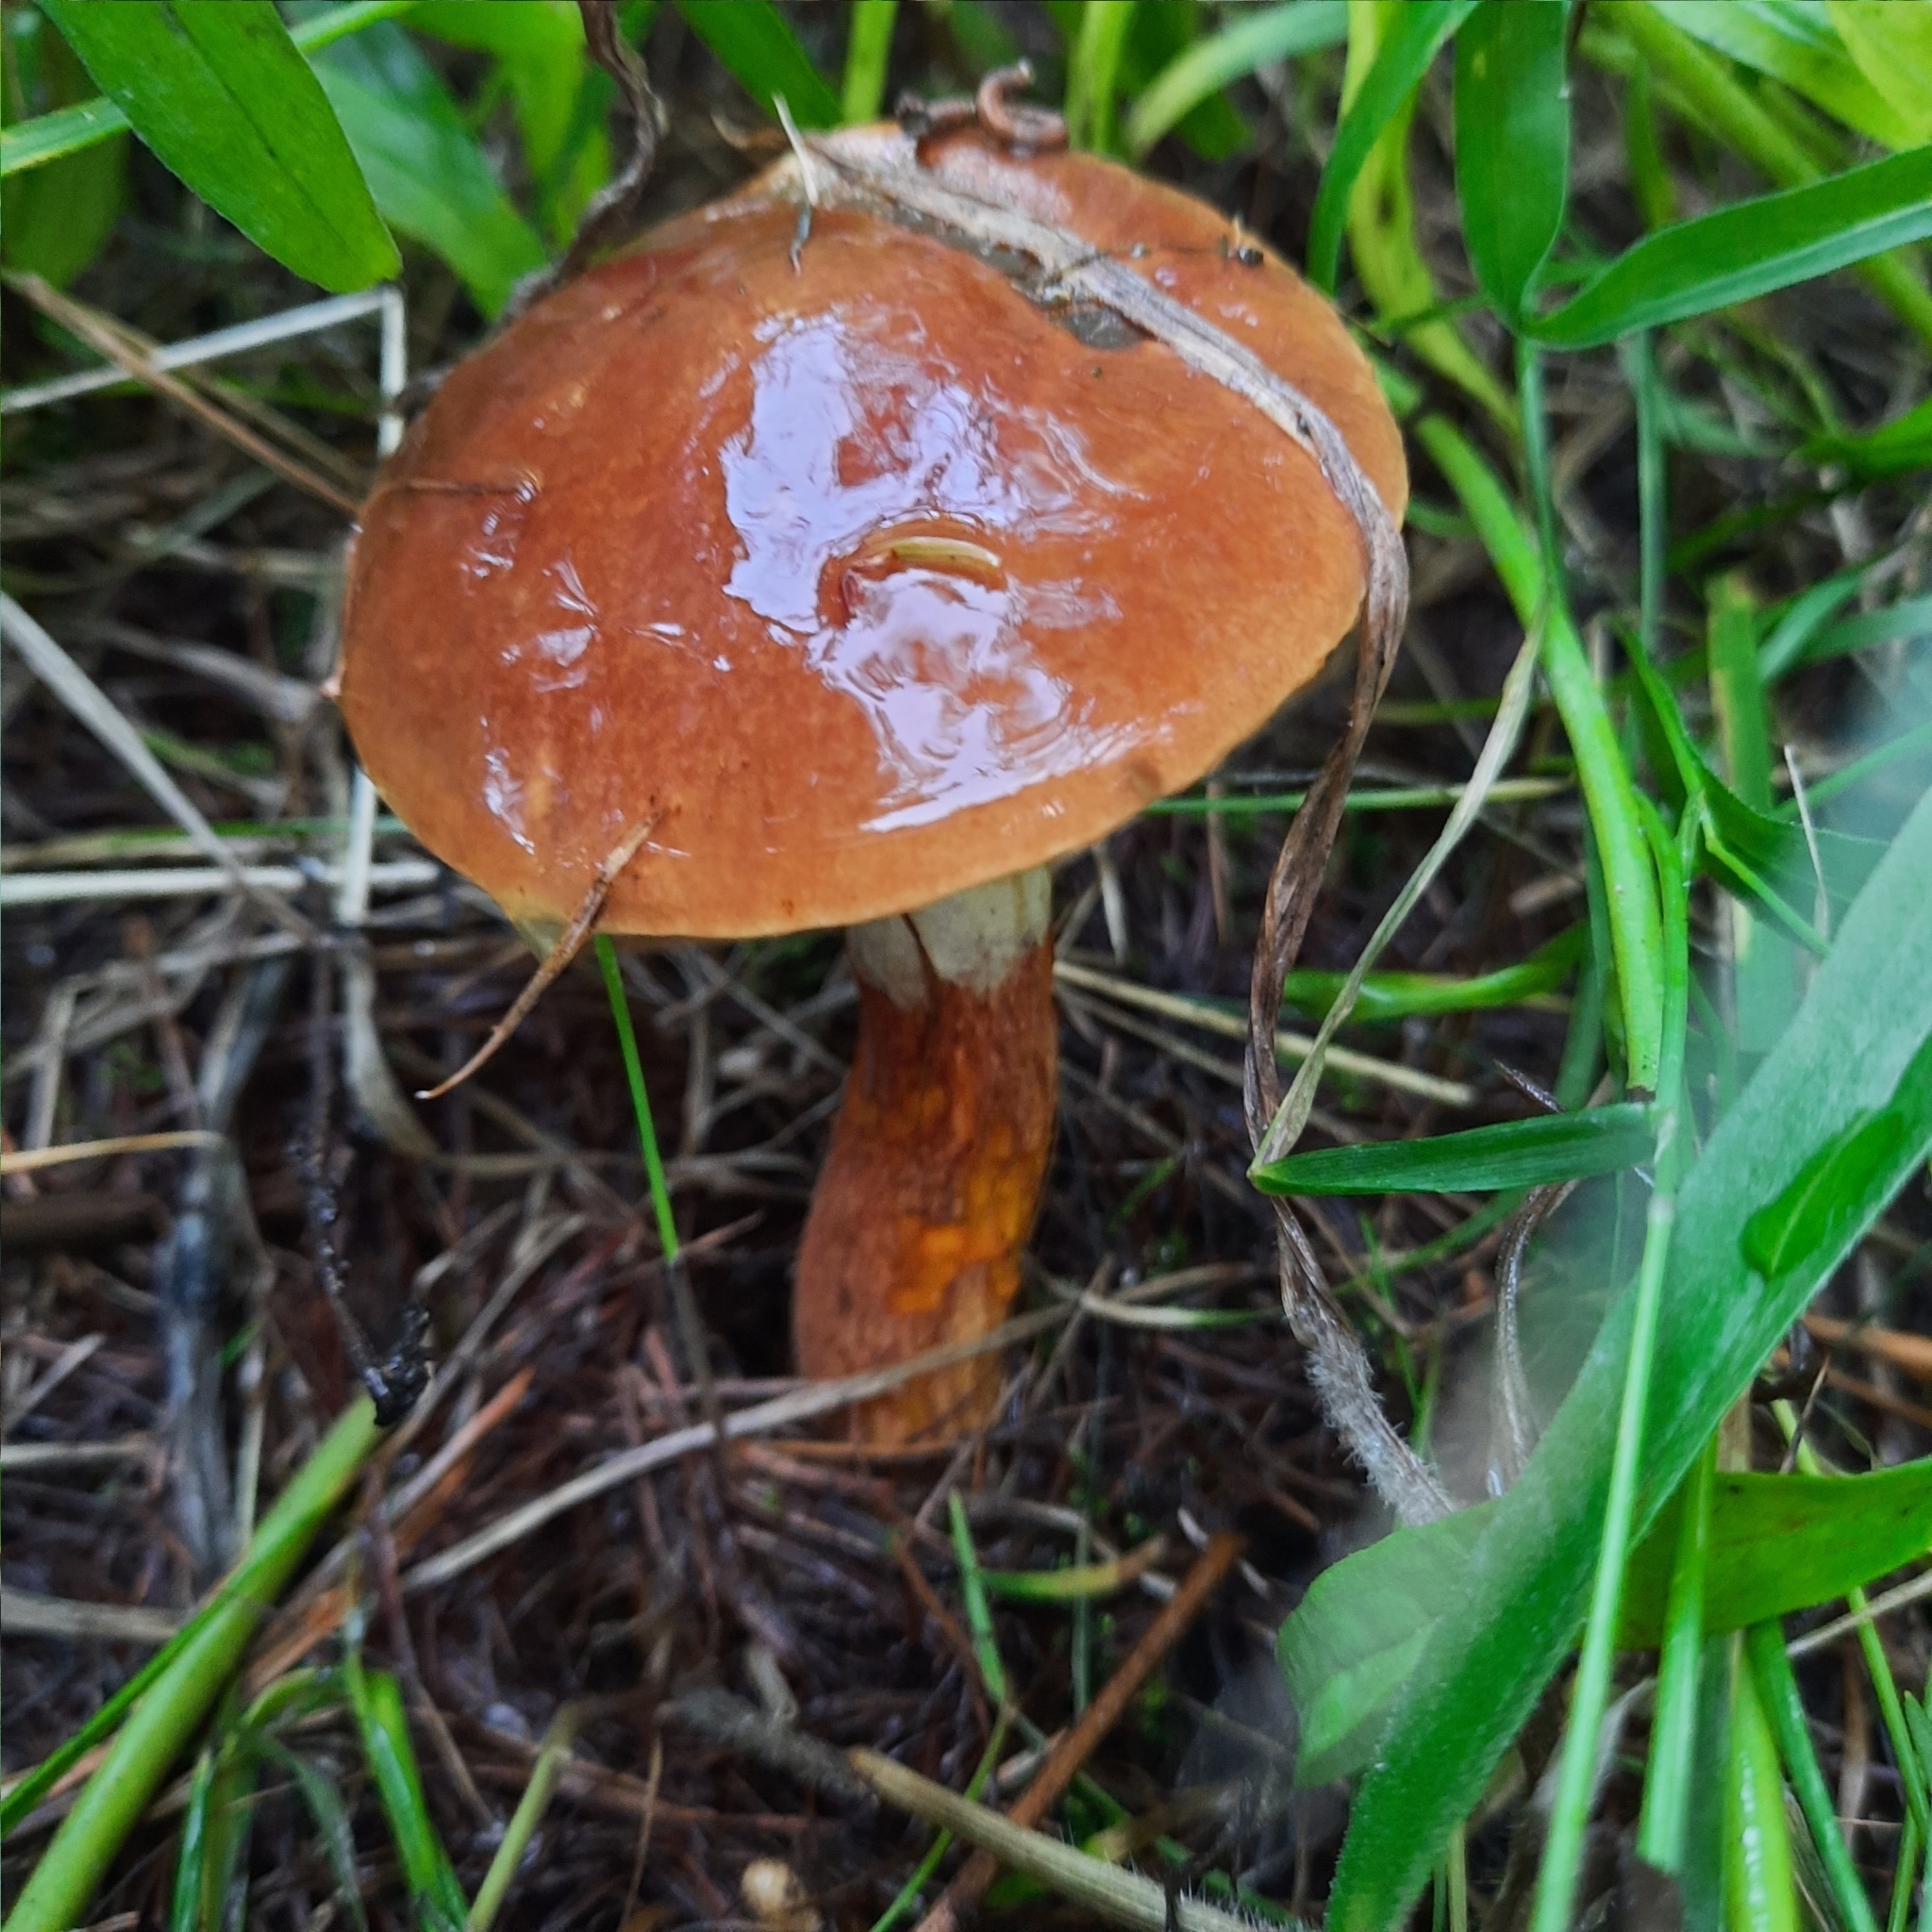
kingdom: Fungi
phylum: Basidiomycota
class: Agaricomycetes
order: Boletales
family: Suillaceae
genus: Suillus
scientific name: Suillus grevillei
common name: Larch bolete
